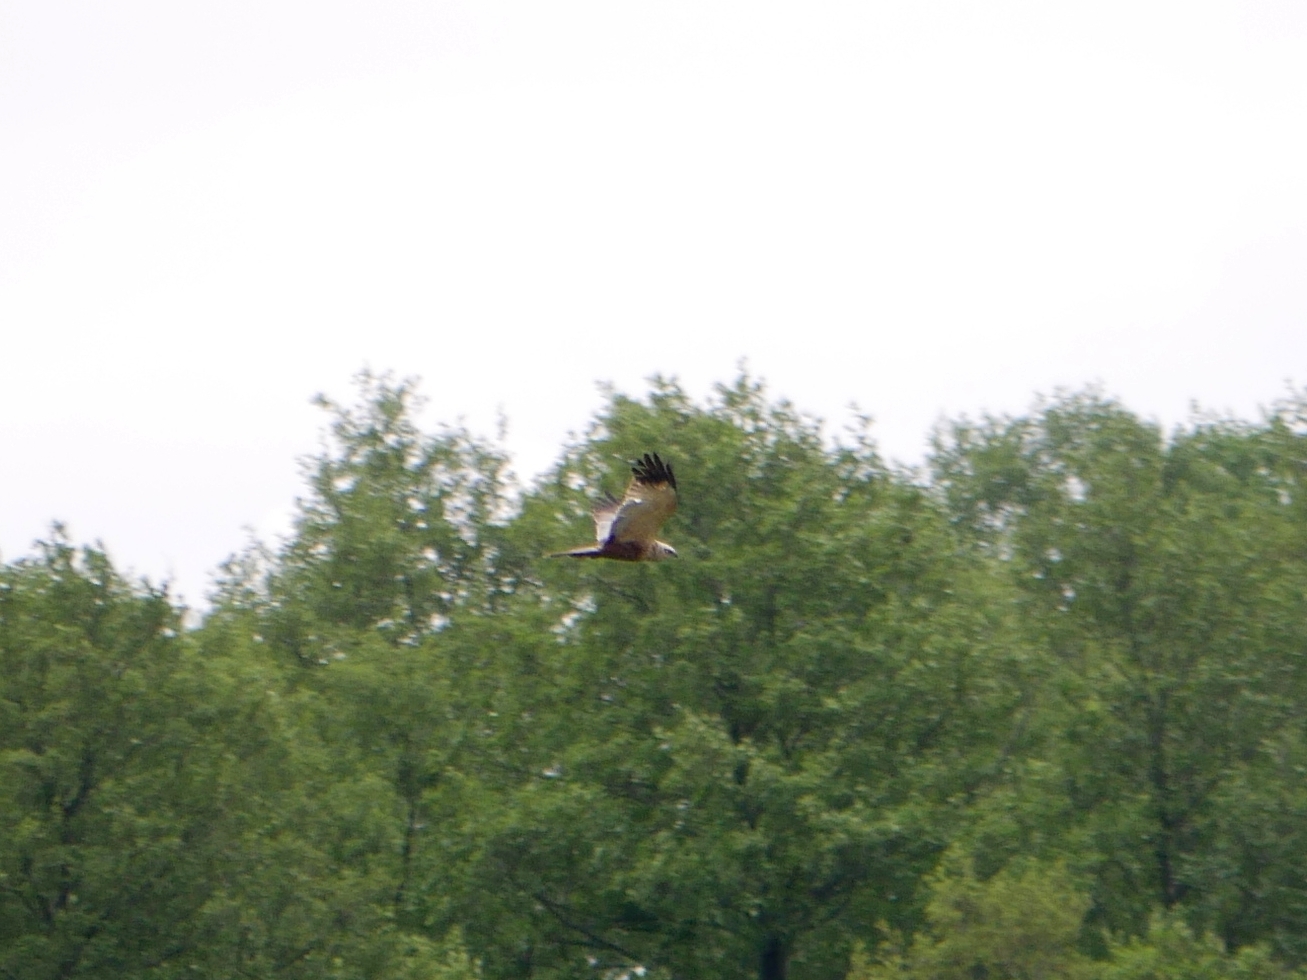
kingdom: Animalia
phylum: Chordata
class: Aves
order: Accipitriformes
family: Accipitridae
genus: Circus
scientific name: Circus aeruginosus
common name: Western marsh harrier
